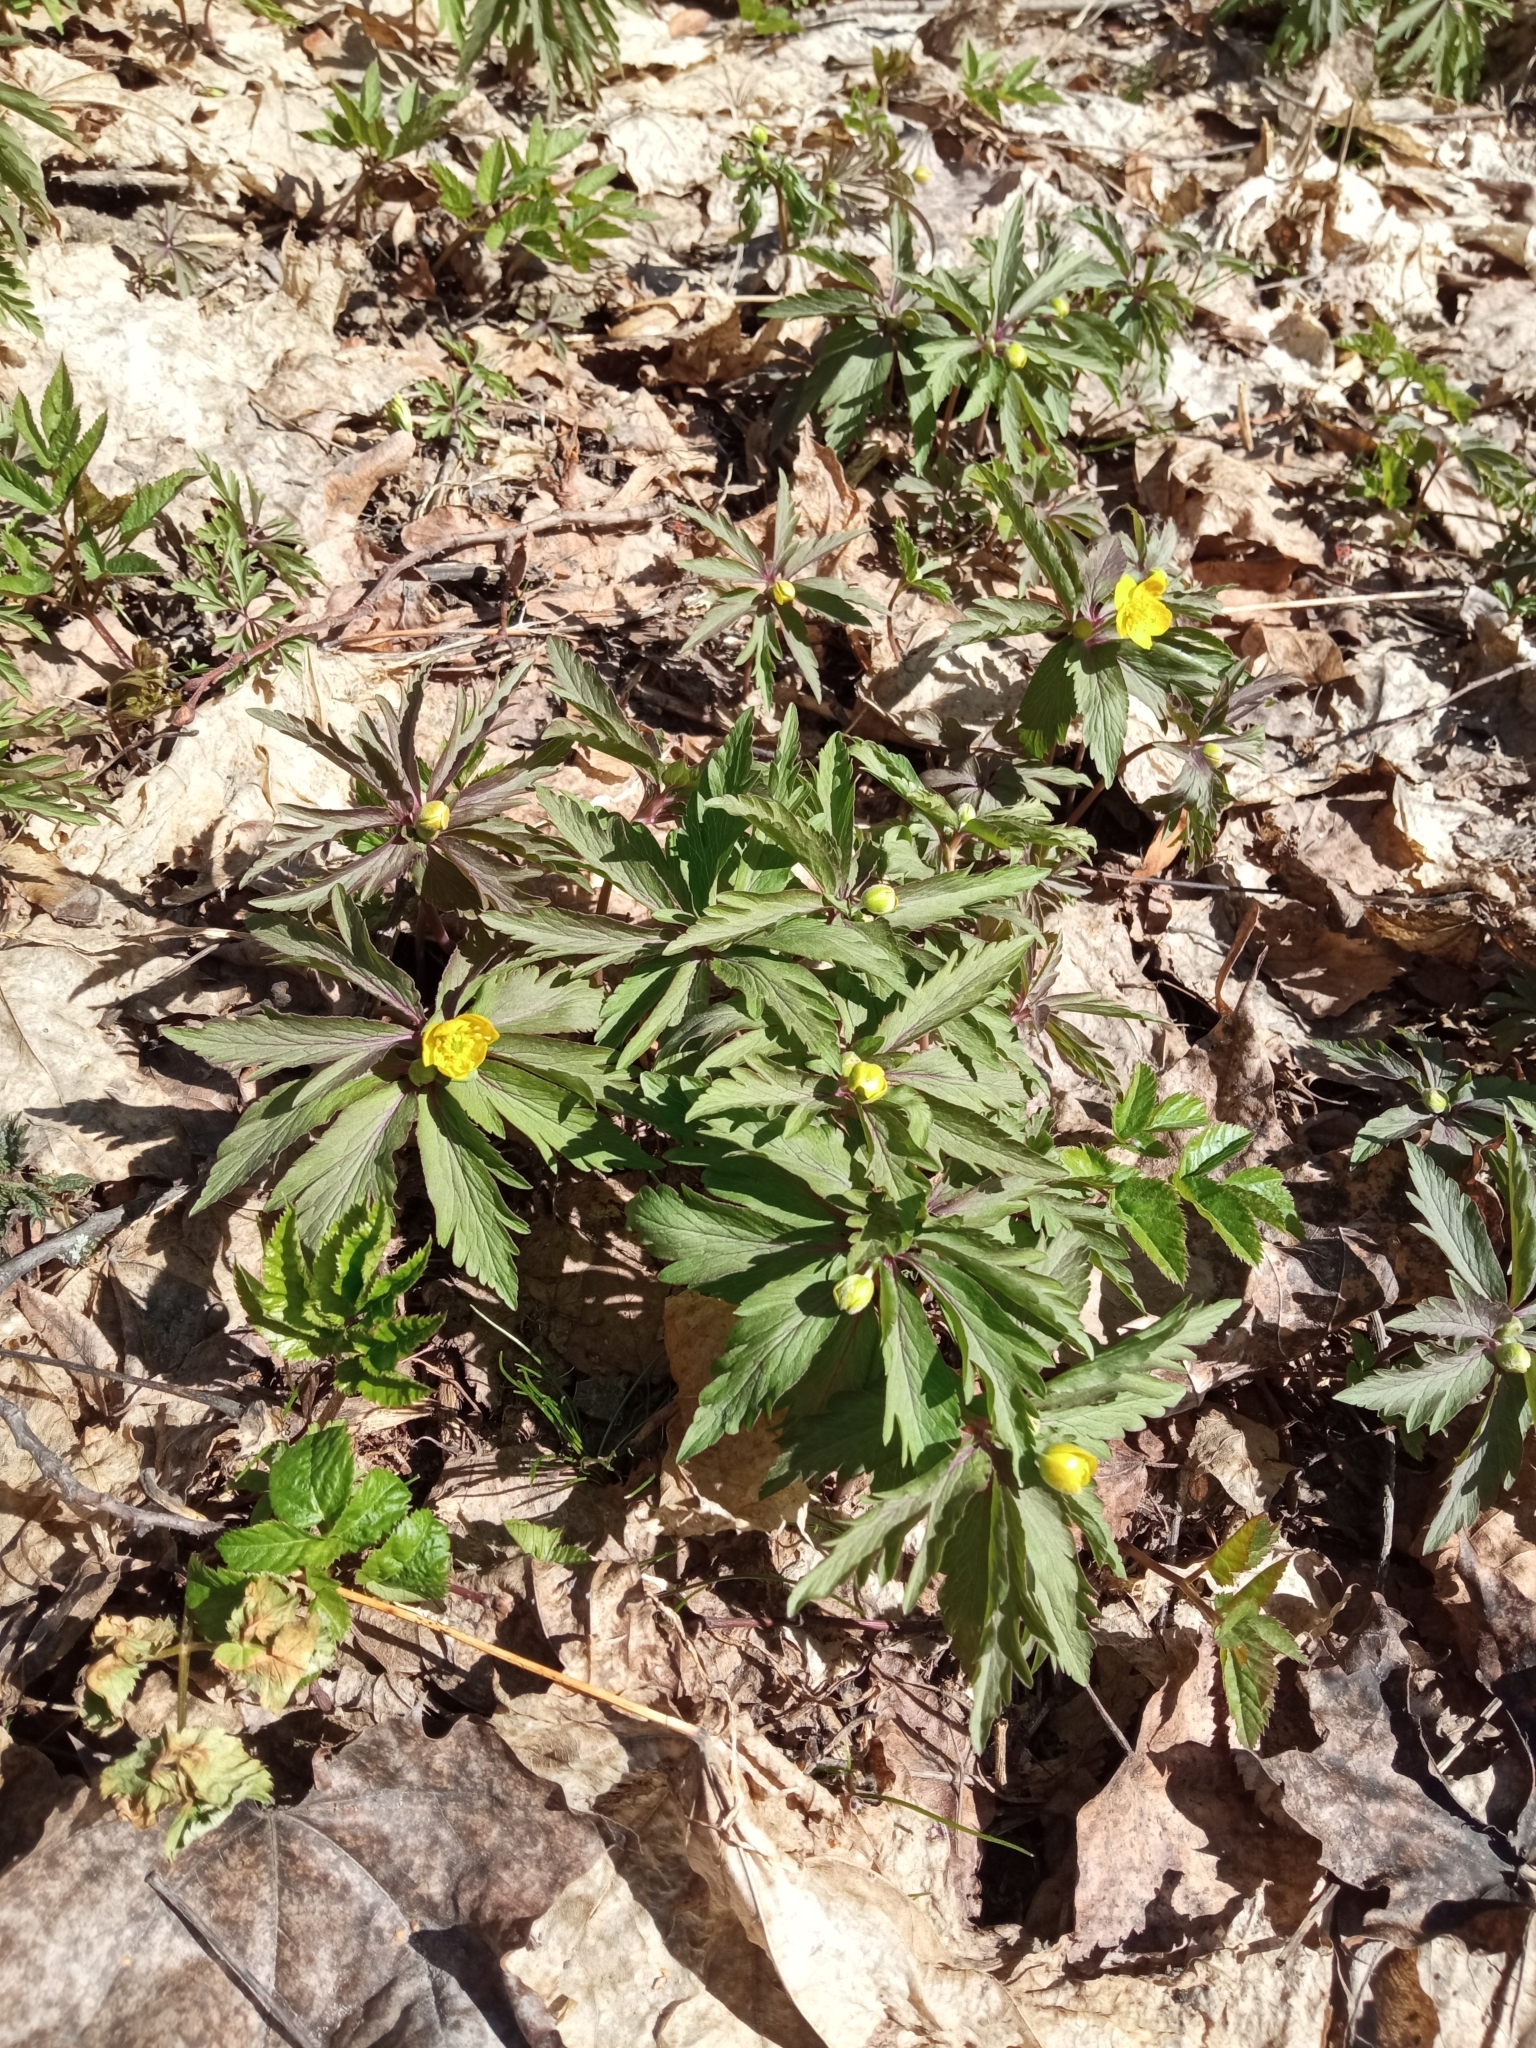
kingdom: Plantae
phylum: Tracheophyta
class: Magnoliopsida
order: Ranunculales
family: Ranunculaceae
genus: Anemone
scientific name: Anemone ranunculoides
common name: Yellow anemone
